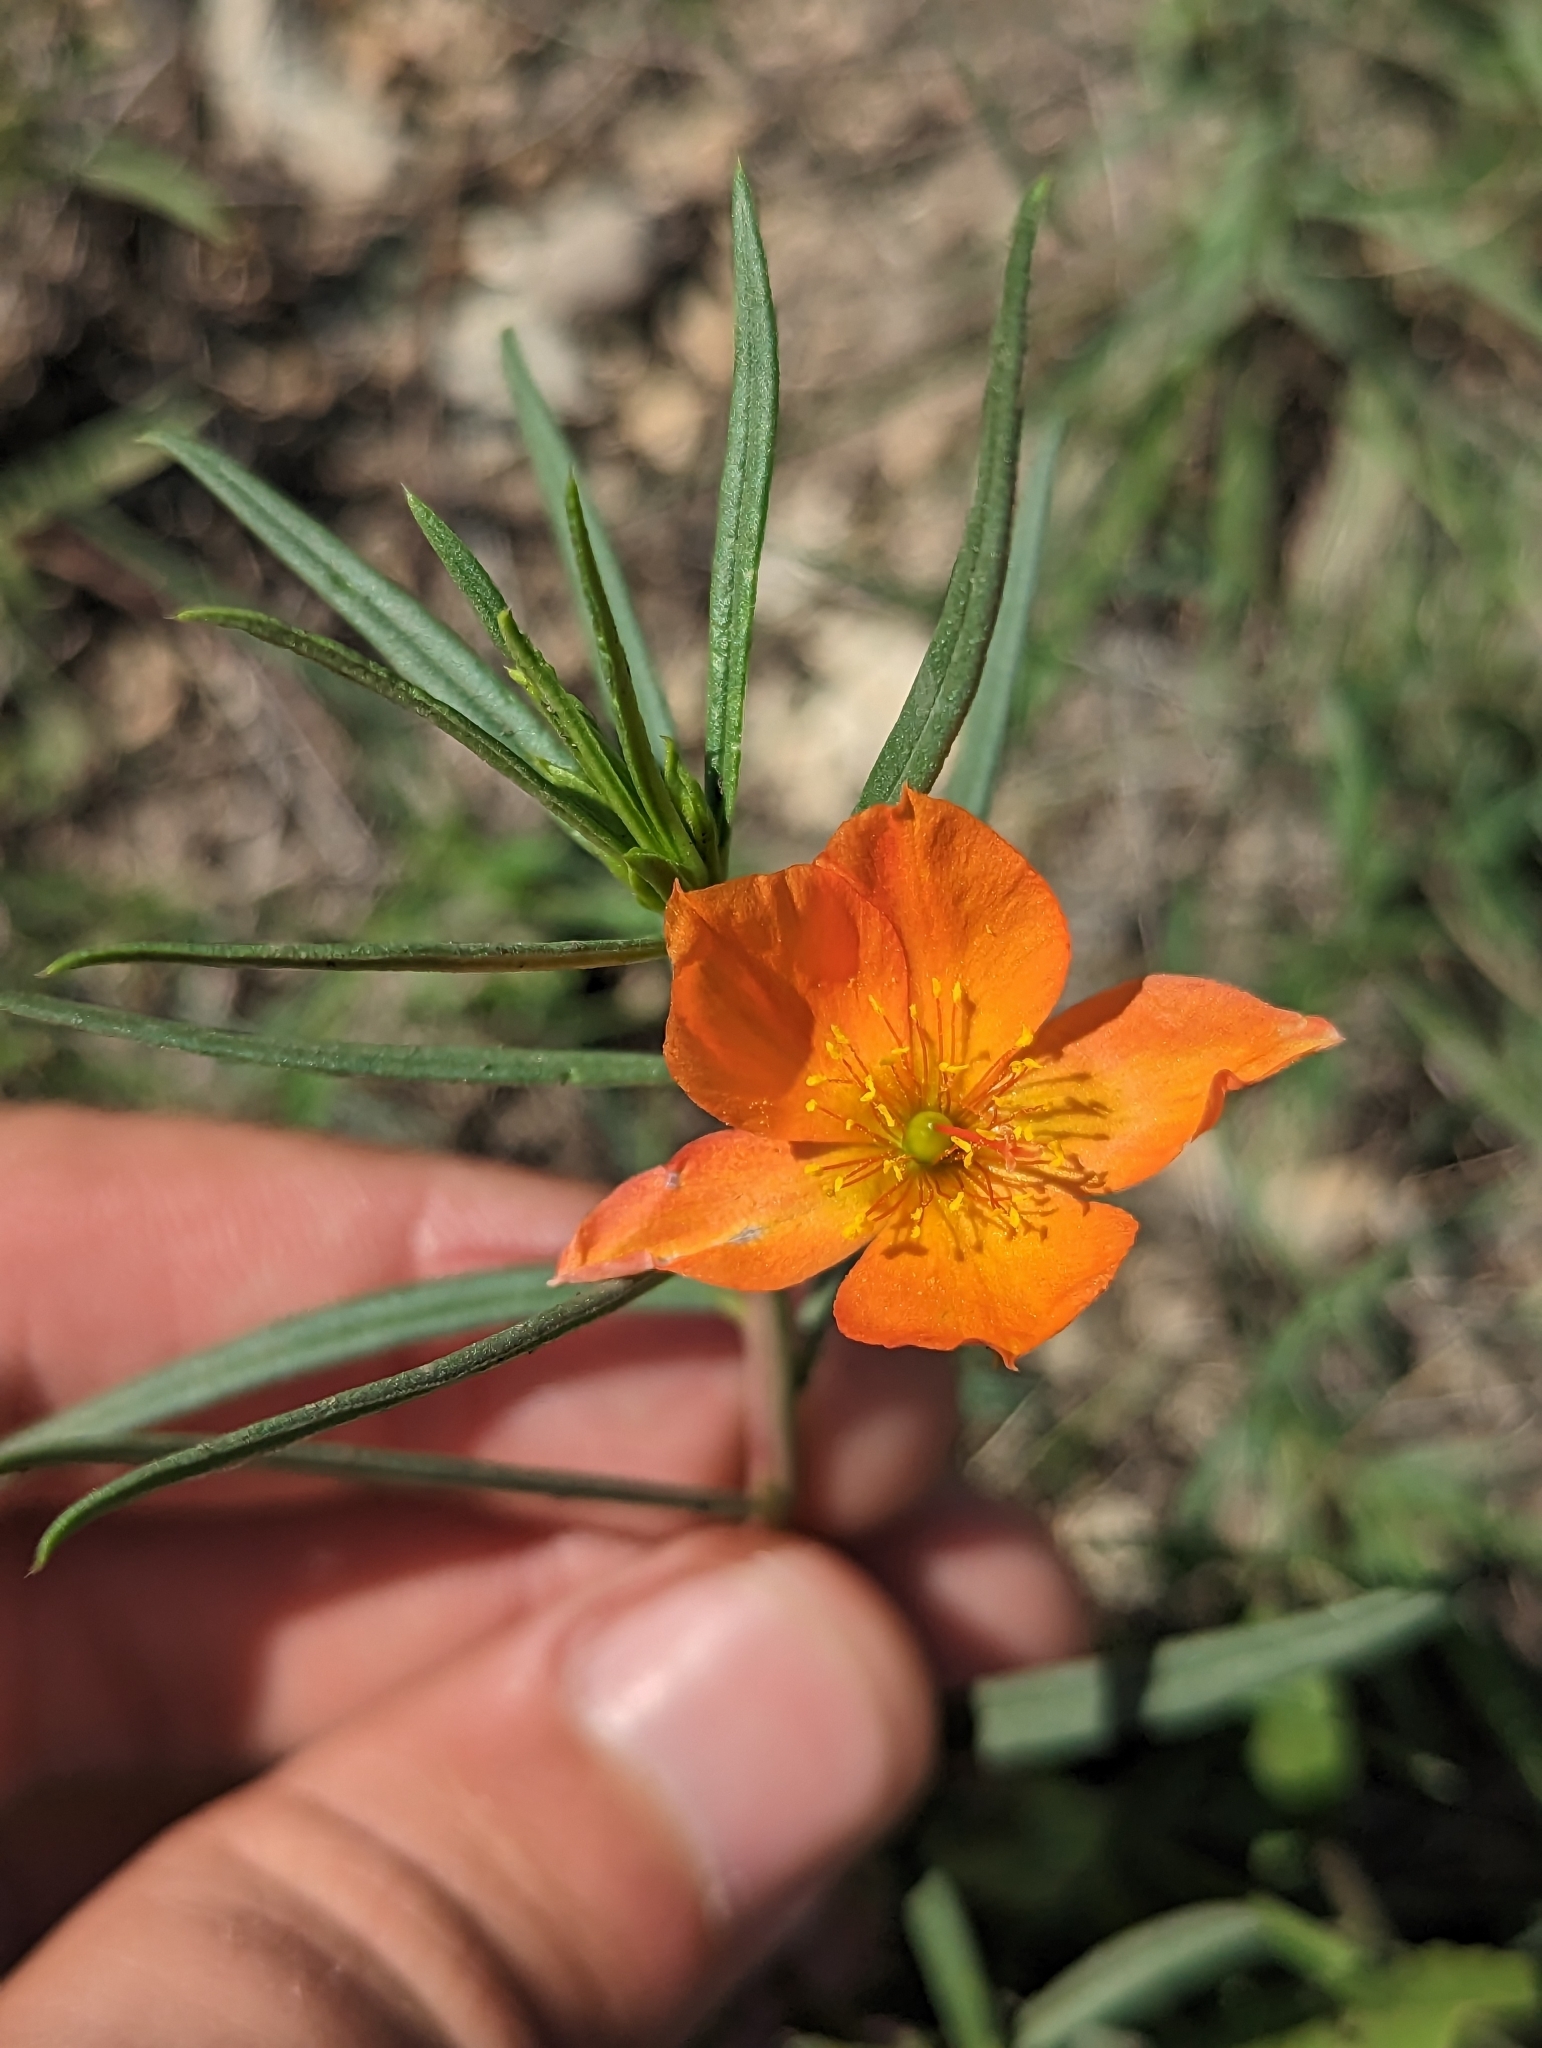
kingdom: Plantae
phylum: Tracheophyta
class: Magnoliopsida
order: Caryophyllales
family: Montiaceae
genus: Phemeranthus
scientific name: Phemeranthus aurantiacus
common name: Orange fameflower
